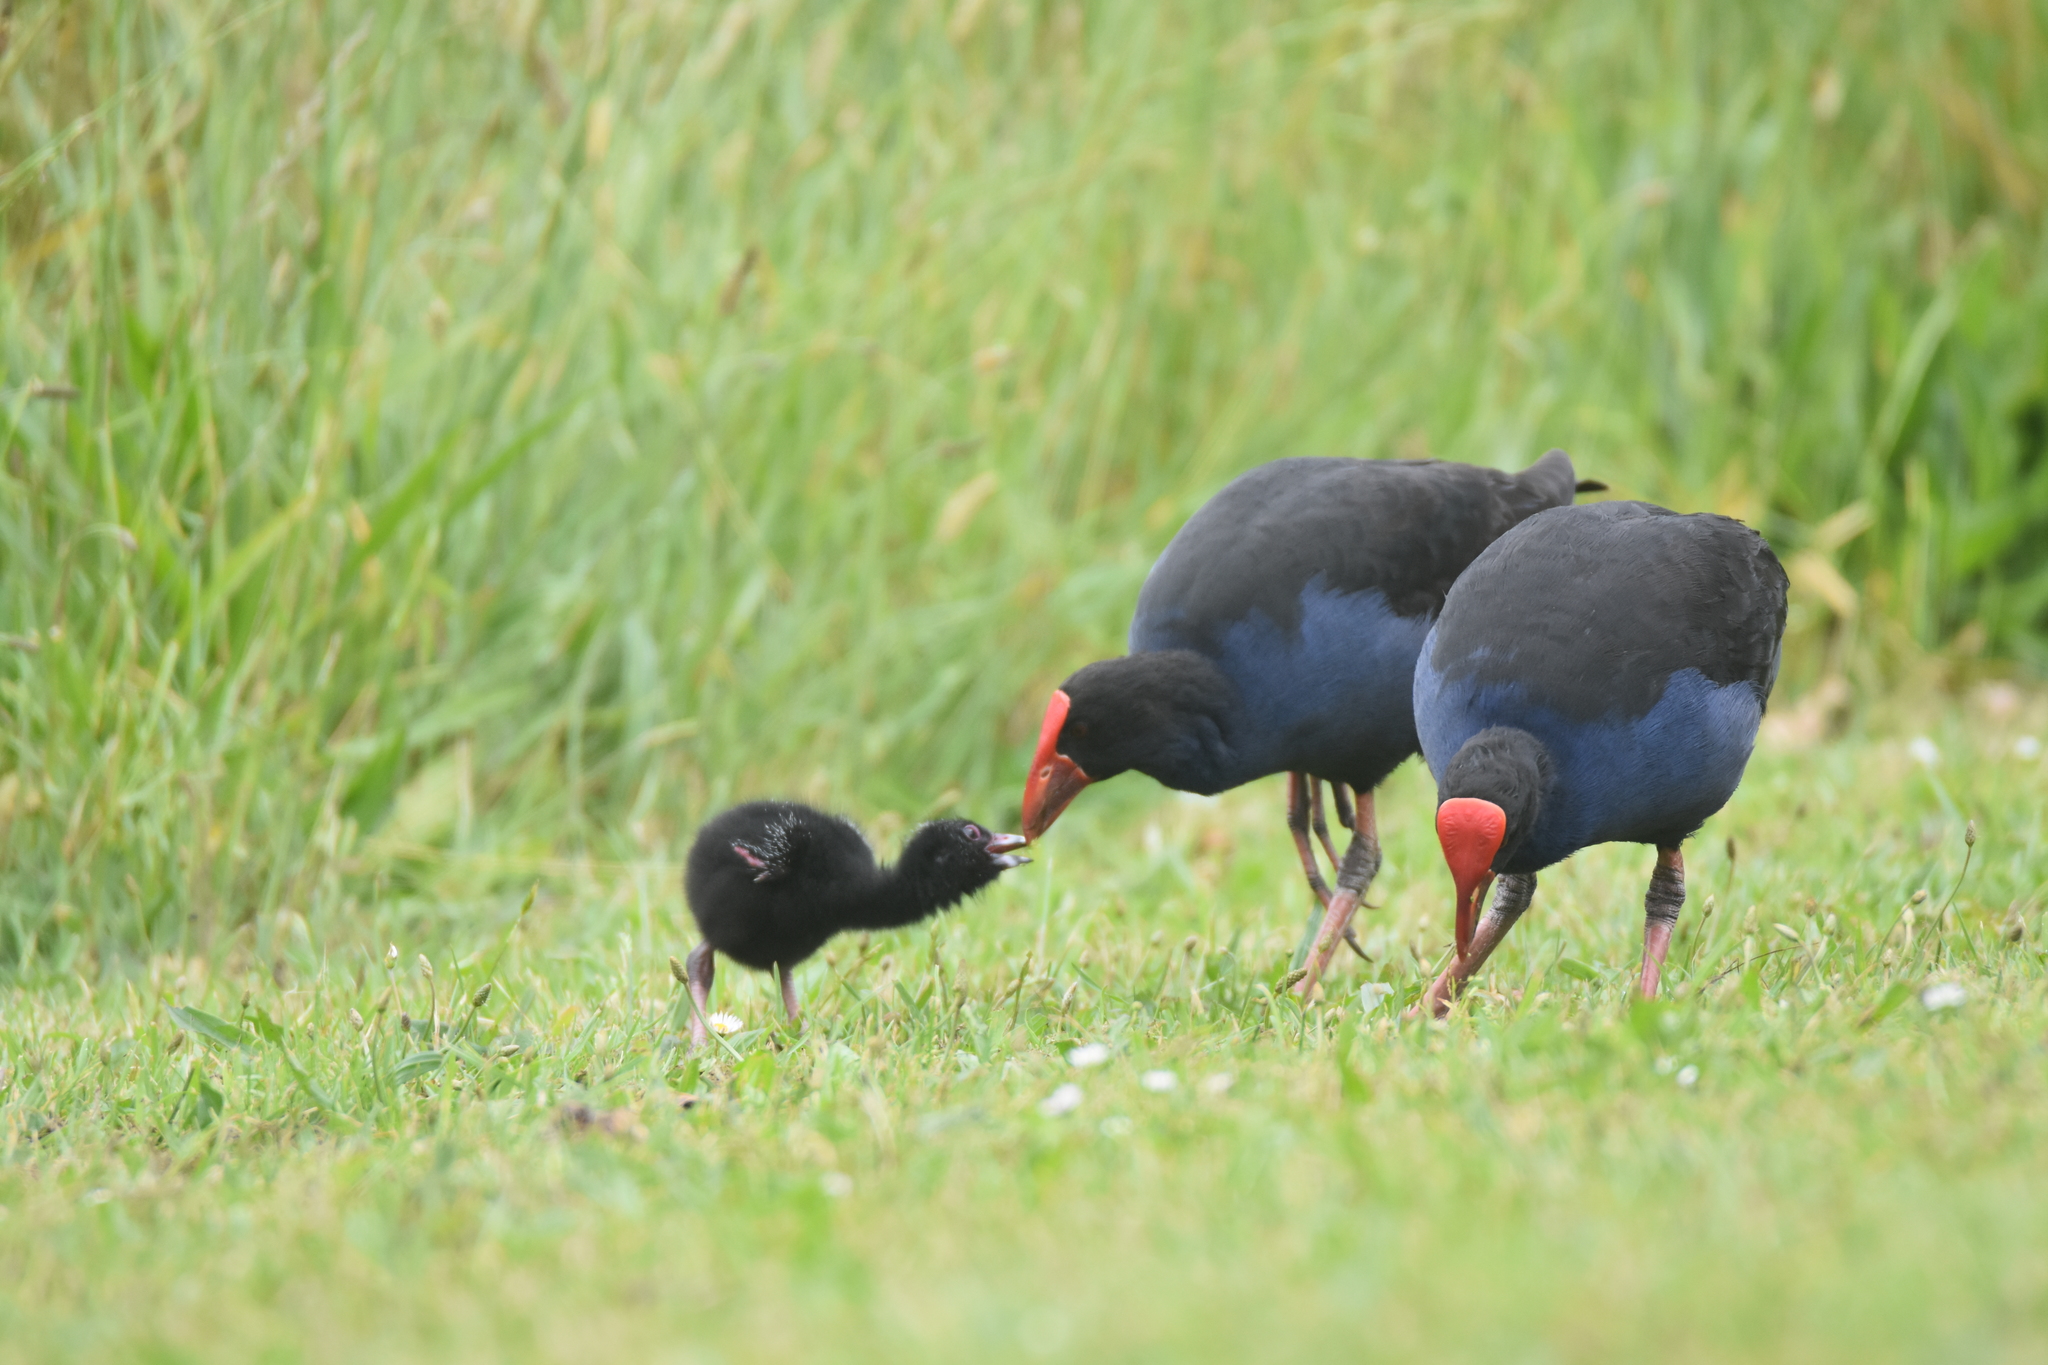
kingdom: Animalia
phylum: Chordata
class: Aves
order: Gruiformes
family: Rallidae
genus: Porphyrio
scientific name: Porphyrio melanotus
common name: Australasian swamphen
